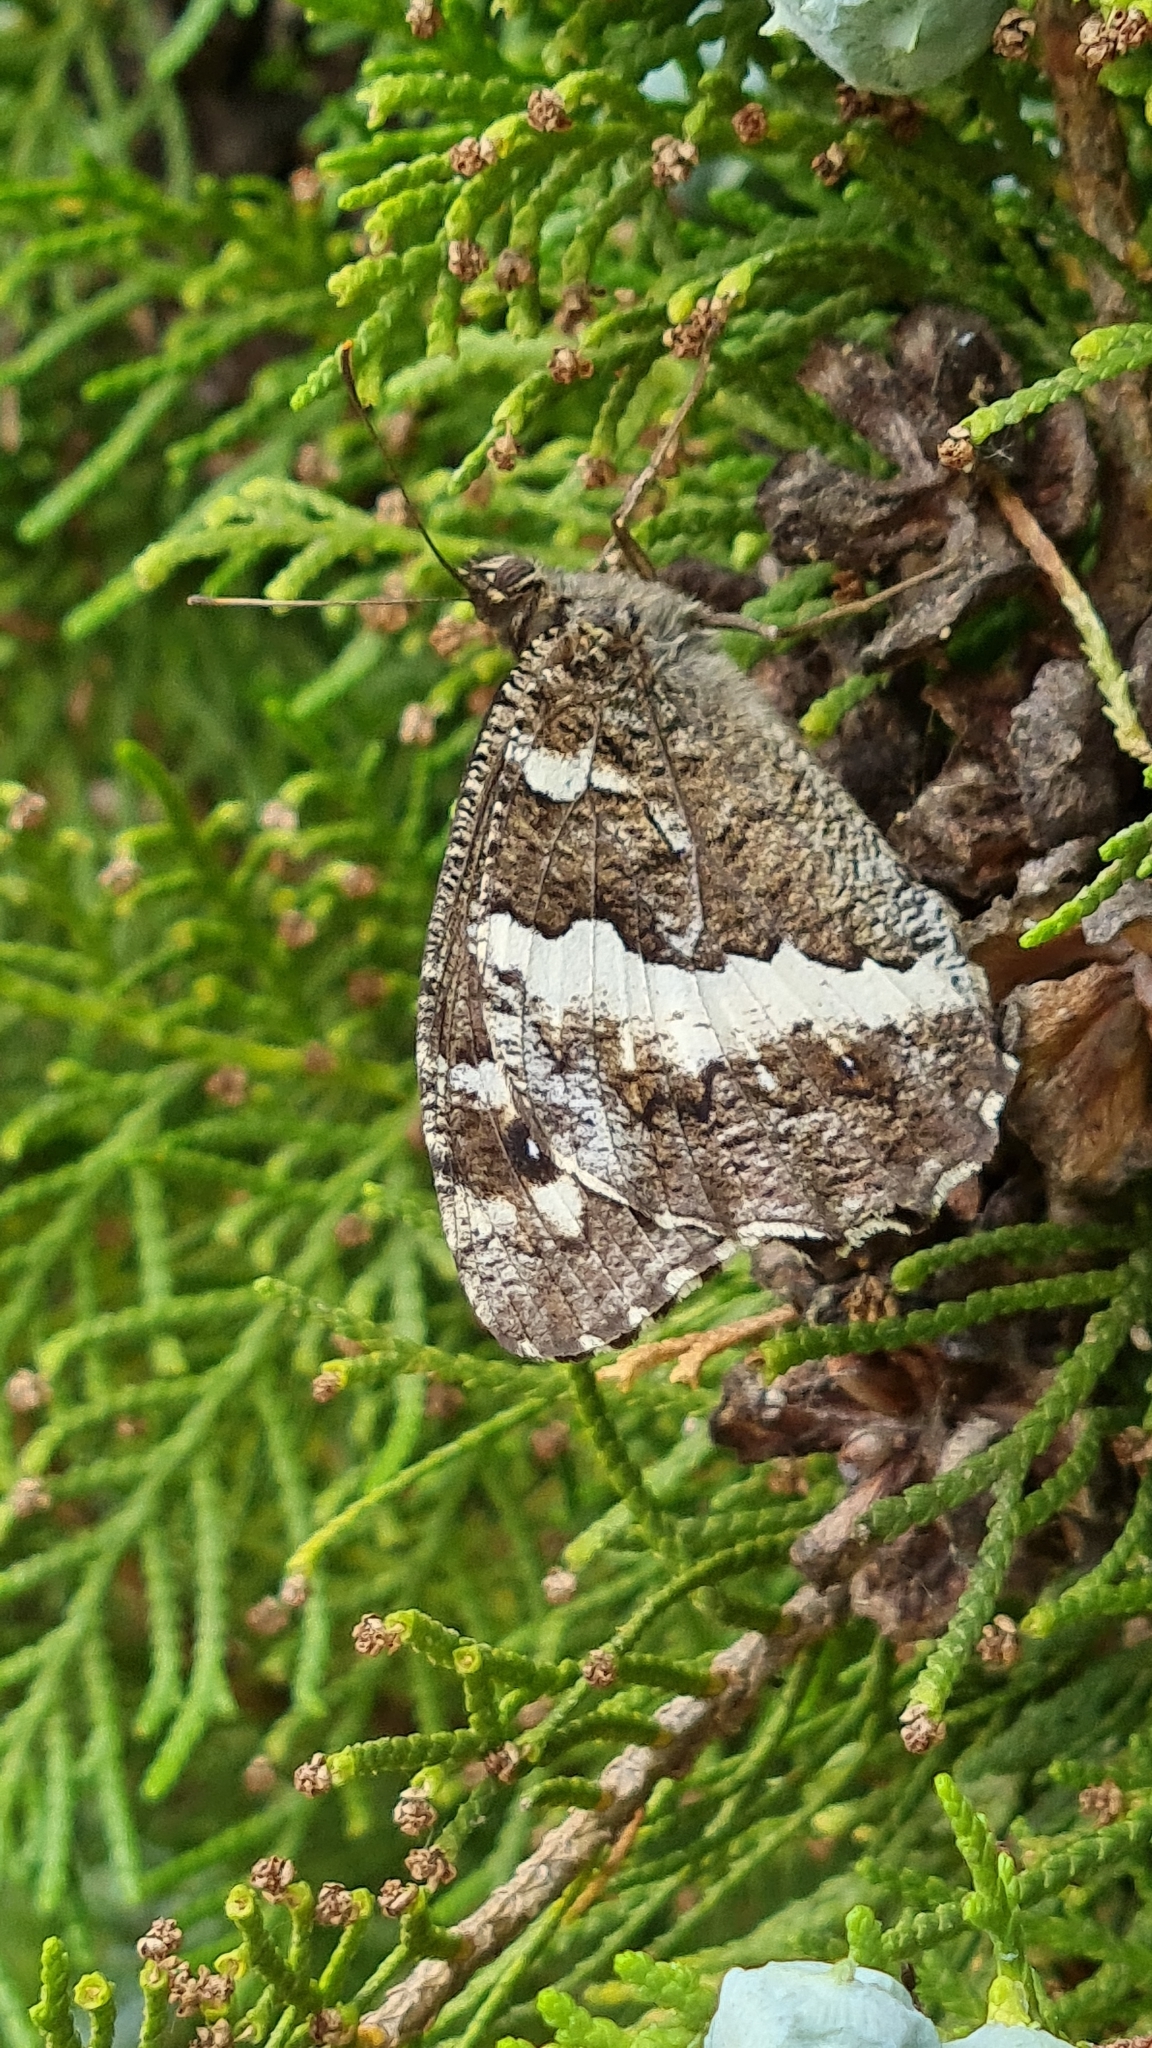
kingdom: Animalia
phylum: Arthropoda
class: Insecta
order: Lepidoptera
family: Lycaenidae
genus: Loweia
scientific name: Loweia tityrus
